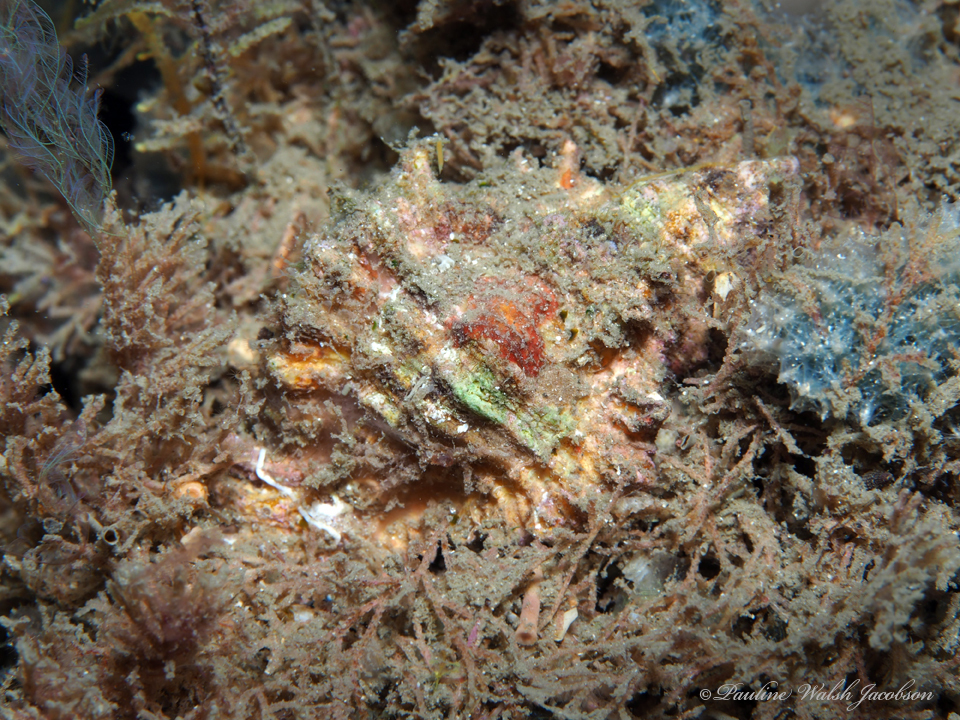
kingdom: Animalia
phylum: Mollusca
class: Gastropoda
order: Neogastropoda
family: Muricidae
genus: Chicoreus
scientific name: Chicoreus florifer
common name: Flowery lace murex
